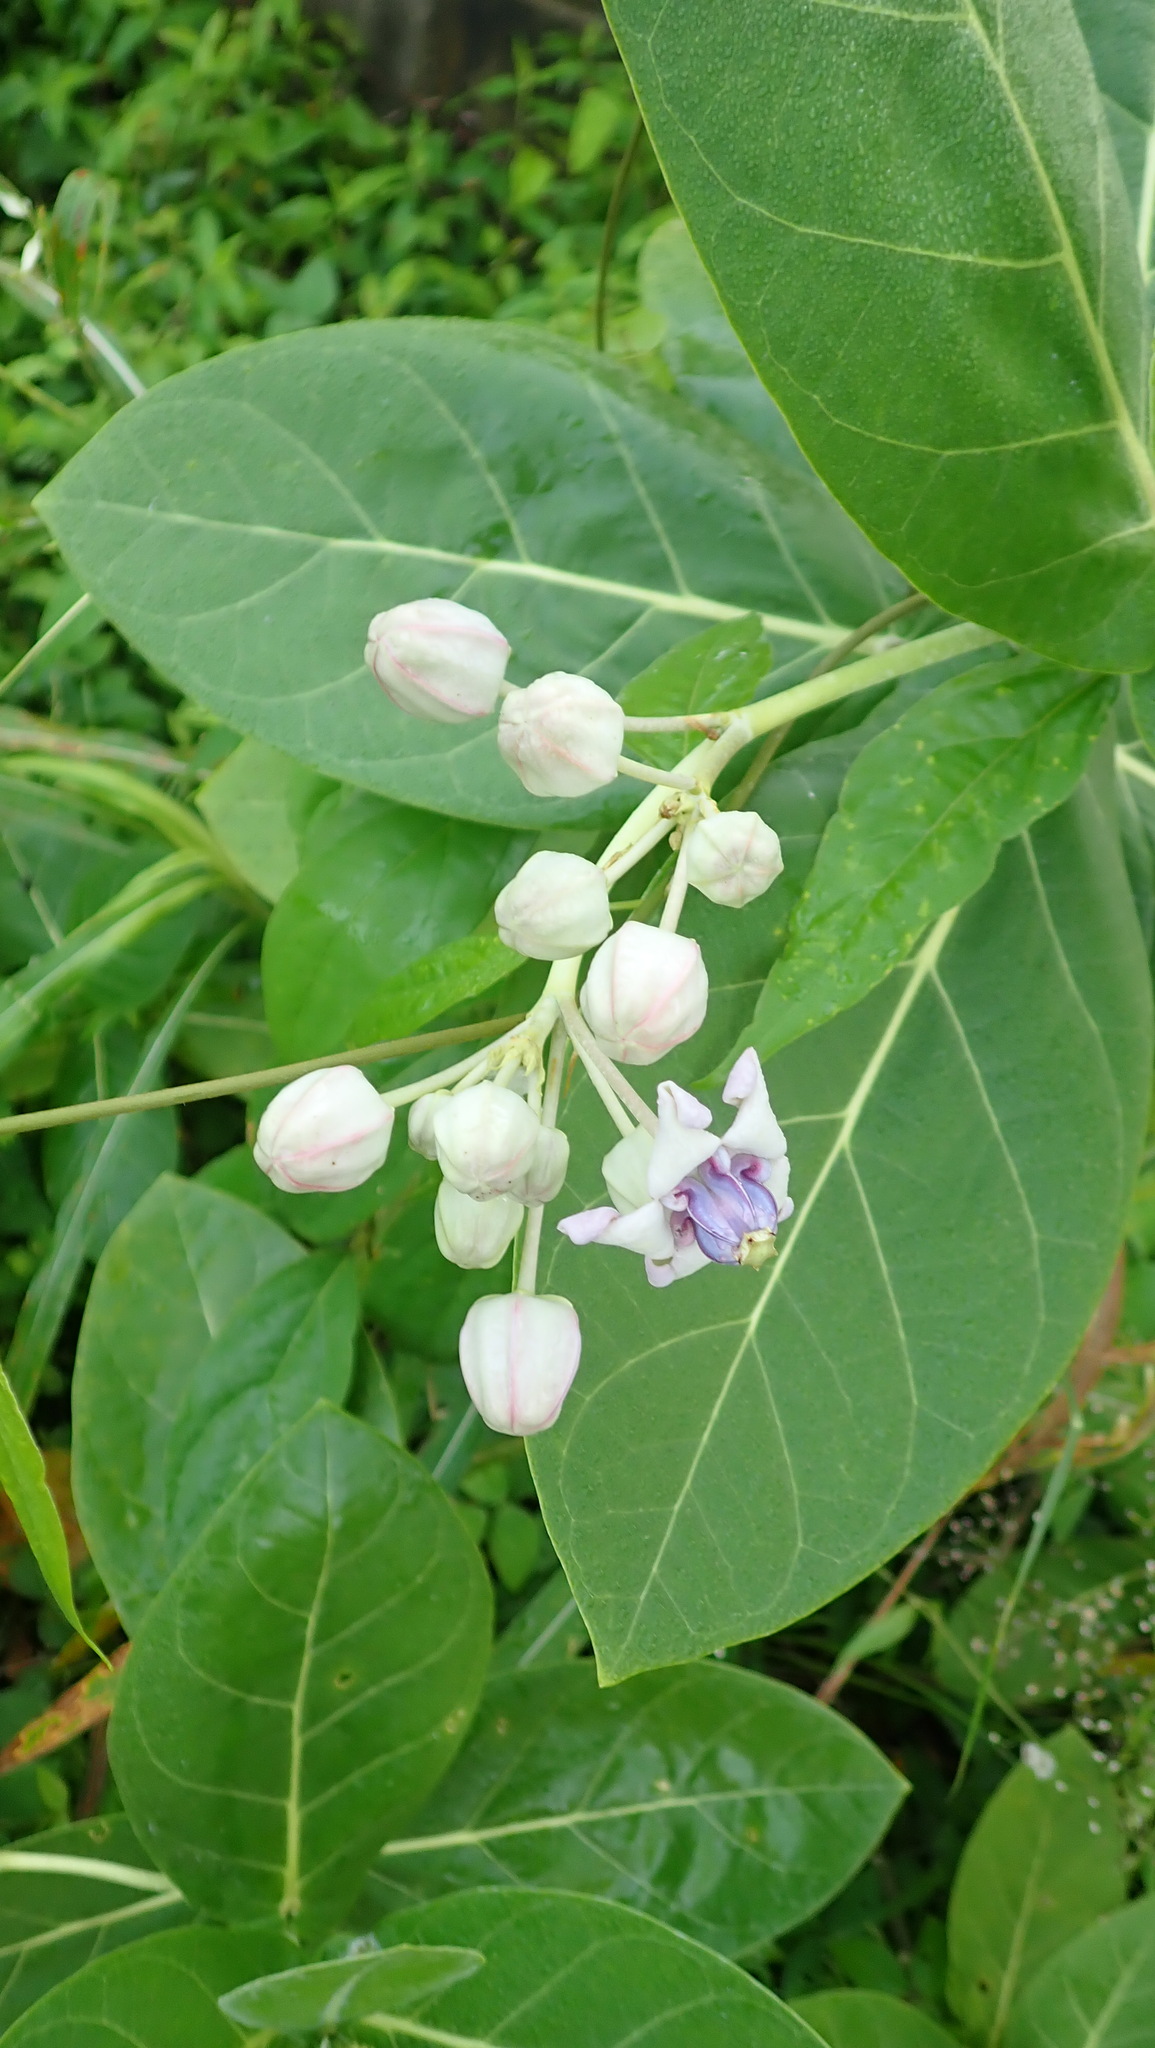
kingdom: Plantae
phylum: Tracheophyta
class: Magnoliopsida
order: Gentianales
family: Apocynaceae
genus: Calotropis
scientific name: Calotropis gigantea
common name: Crown flower
